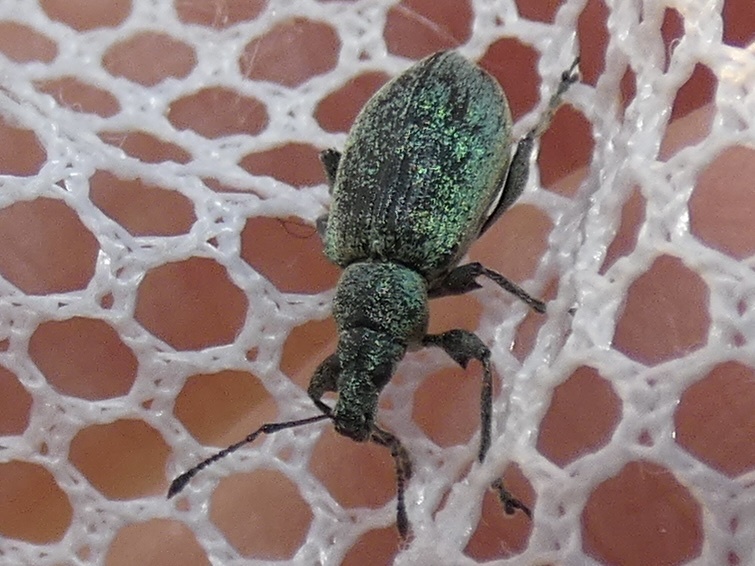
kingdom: Animalia
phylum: Arthropoda
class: Insecta
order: Coleoptera
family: Curculionidae
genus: Phyllobius
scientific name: Phyllobius pomaceus
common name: Green nettle weevil
